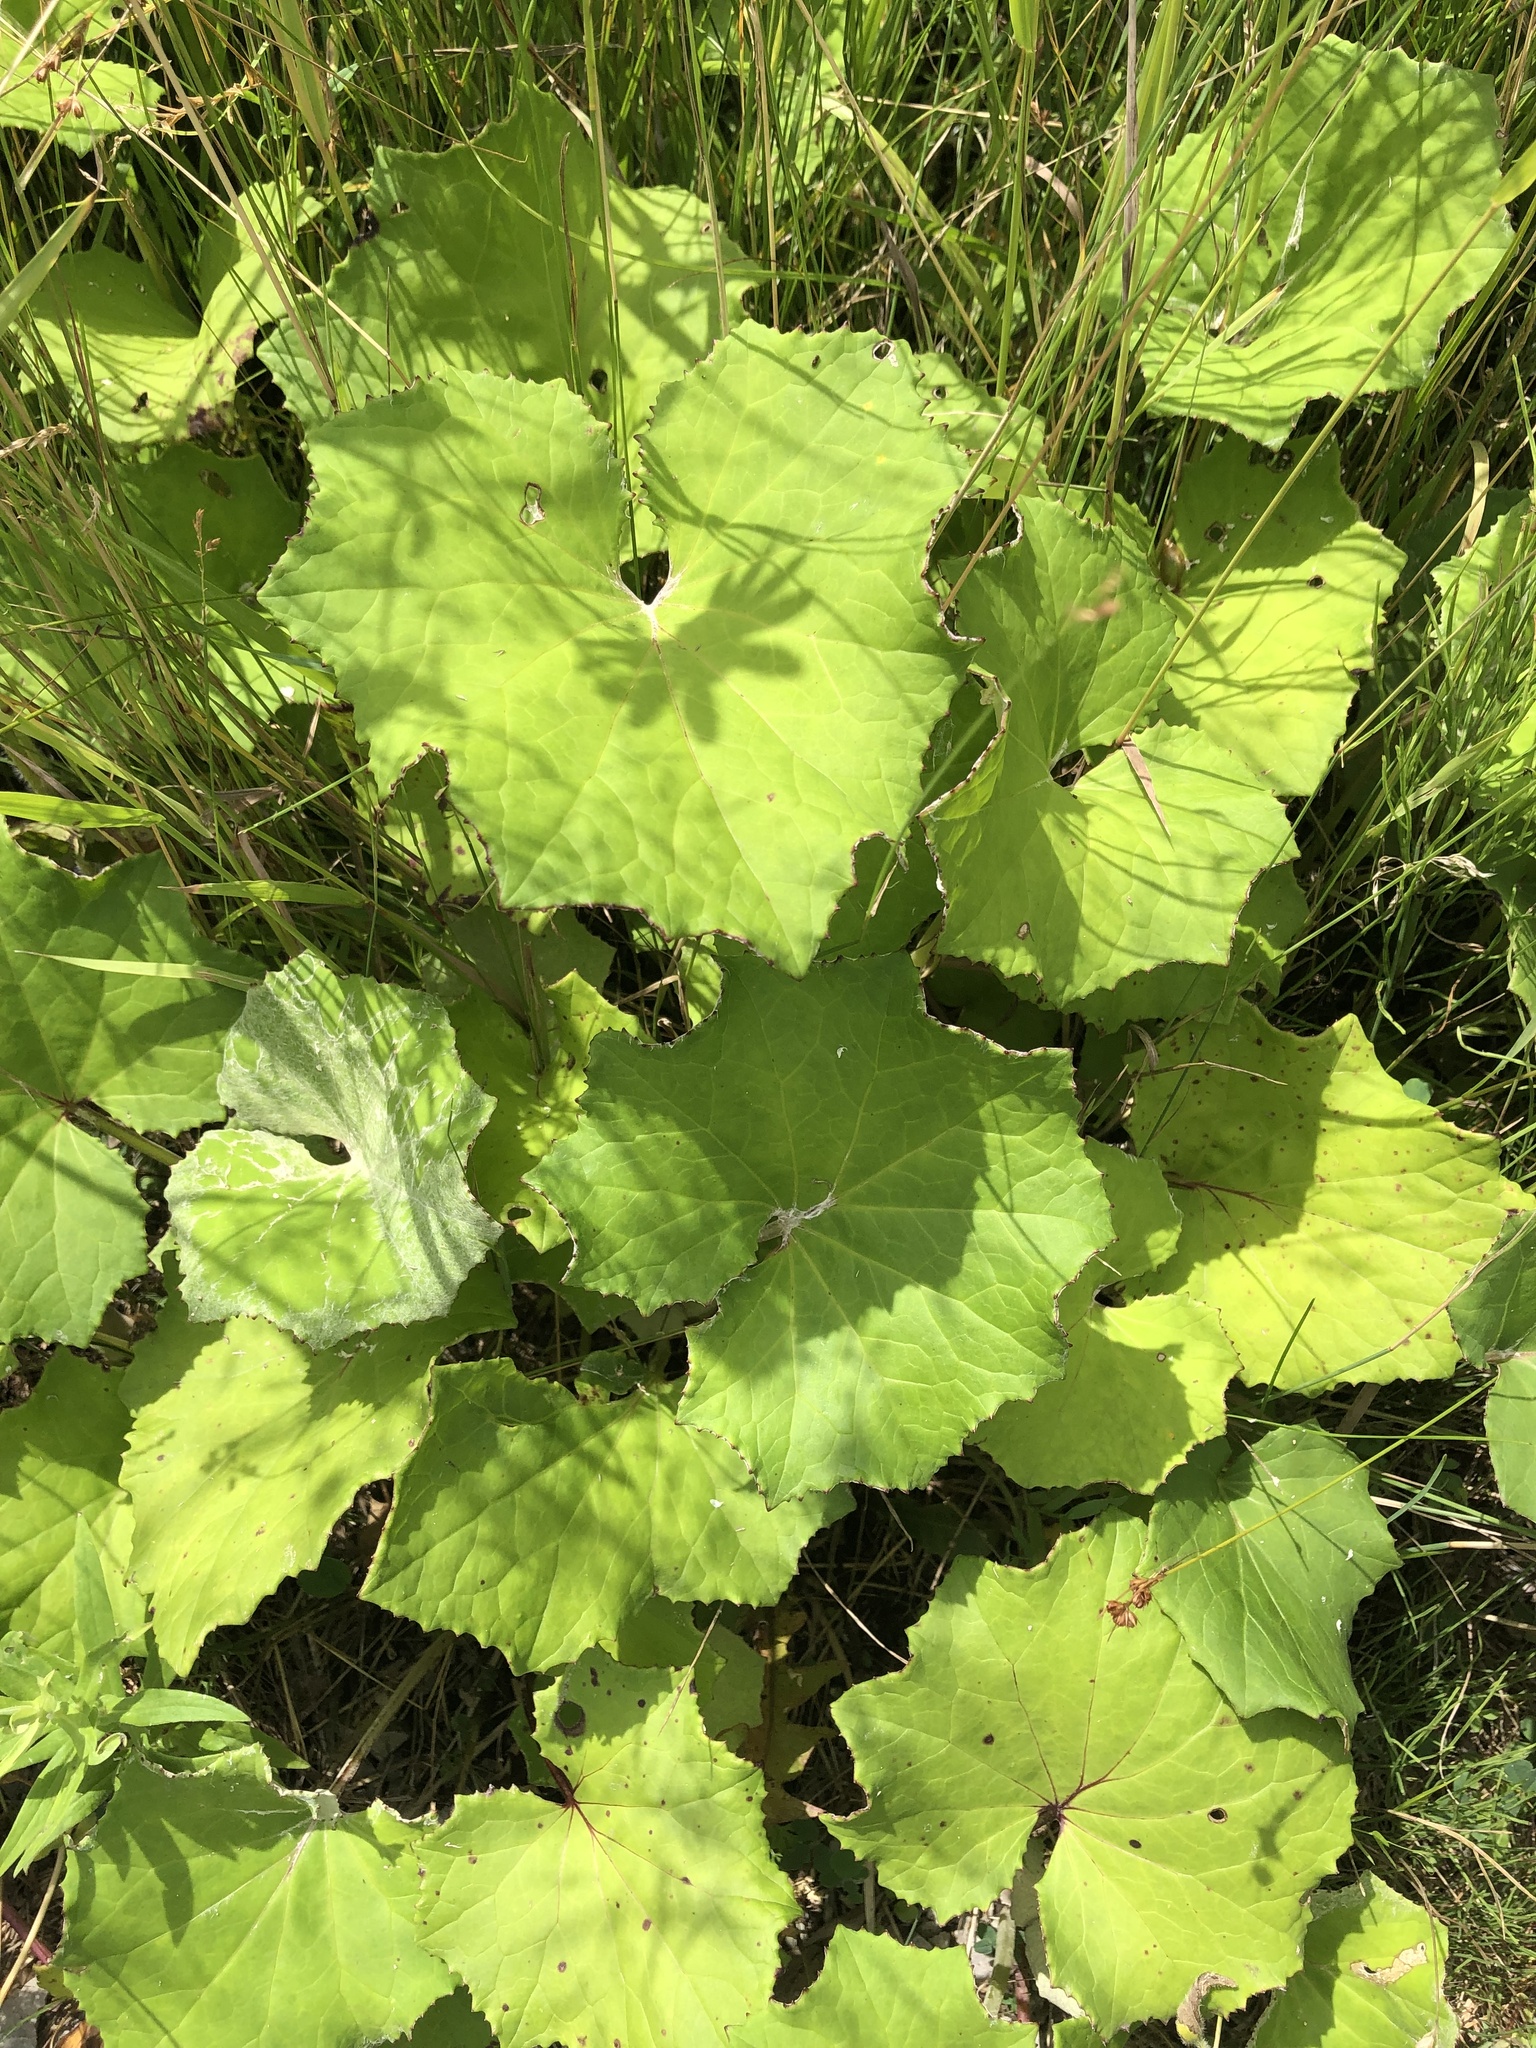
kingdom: Plantae
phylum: Tracheophyta
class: Magnoliopsida
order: Asterales
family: Asteraceae
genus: Tussilago
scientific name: Tussilago farfara
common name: Coltsfoot
